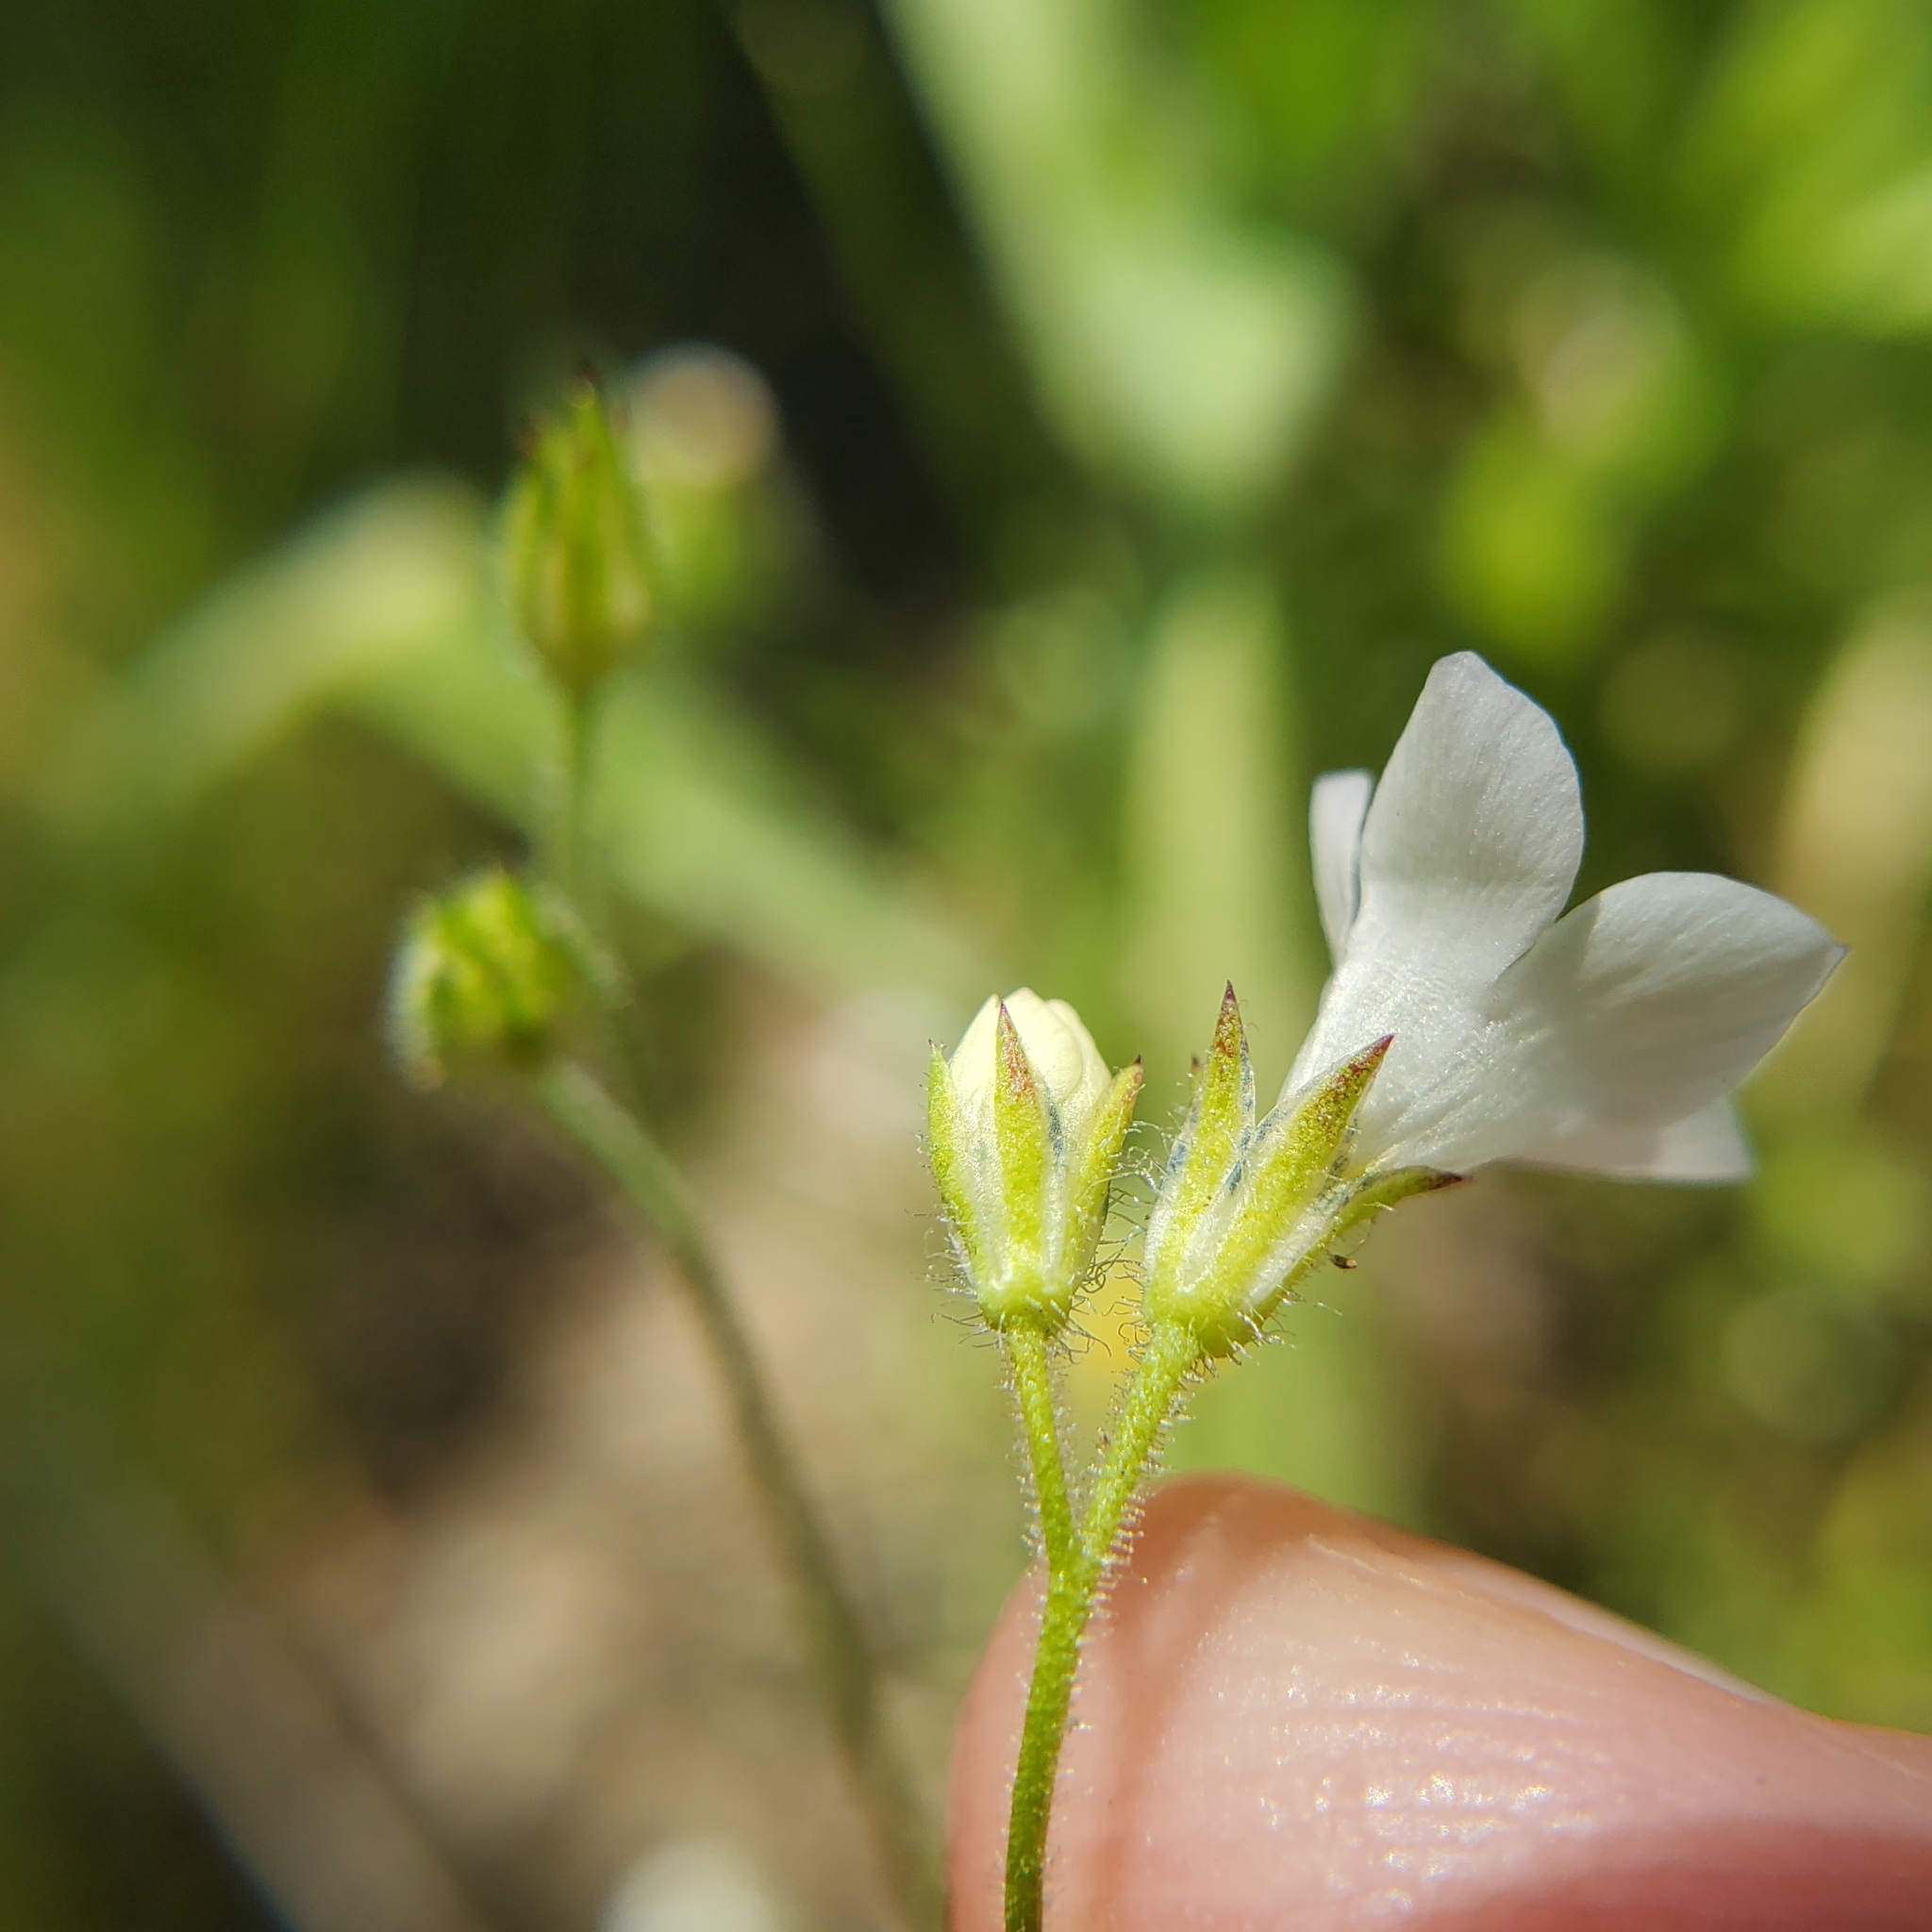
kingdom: Plantae
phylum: Tracheophyta
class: Magnoliopsida
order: Ericales
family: Polemoniaceae
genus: Gilia
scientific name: Gilia angelensis
